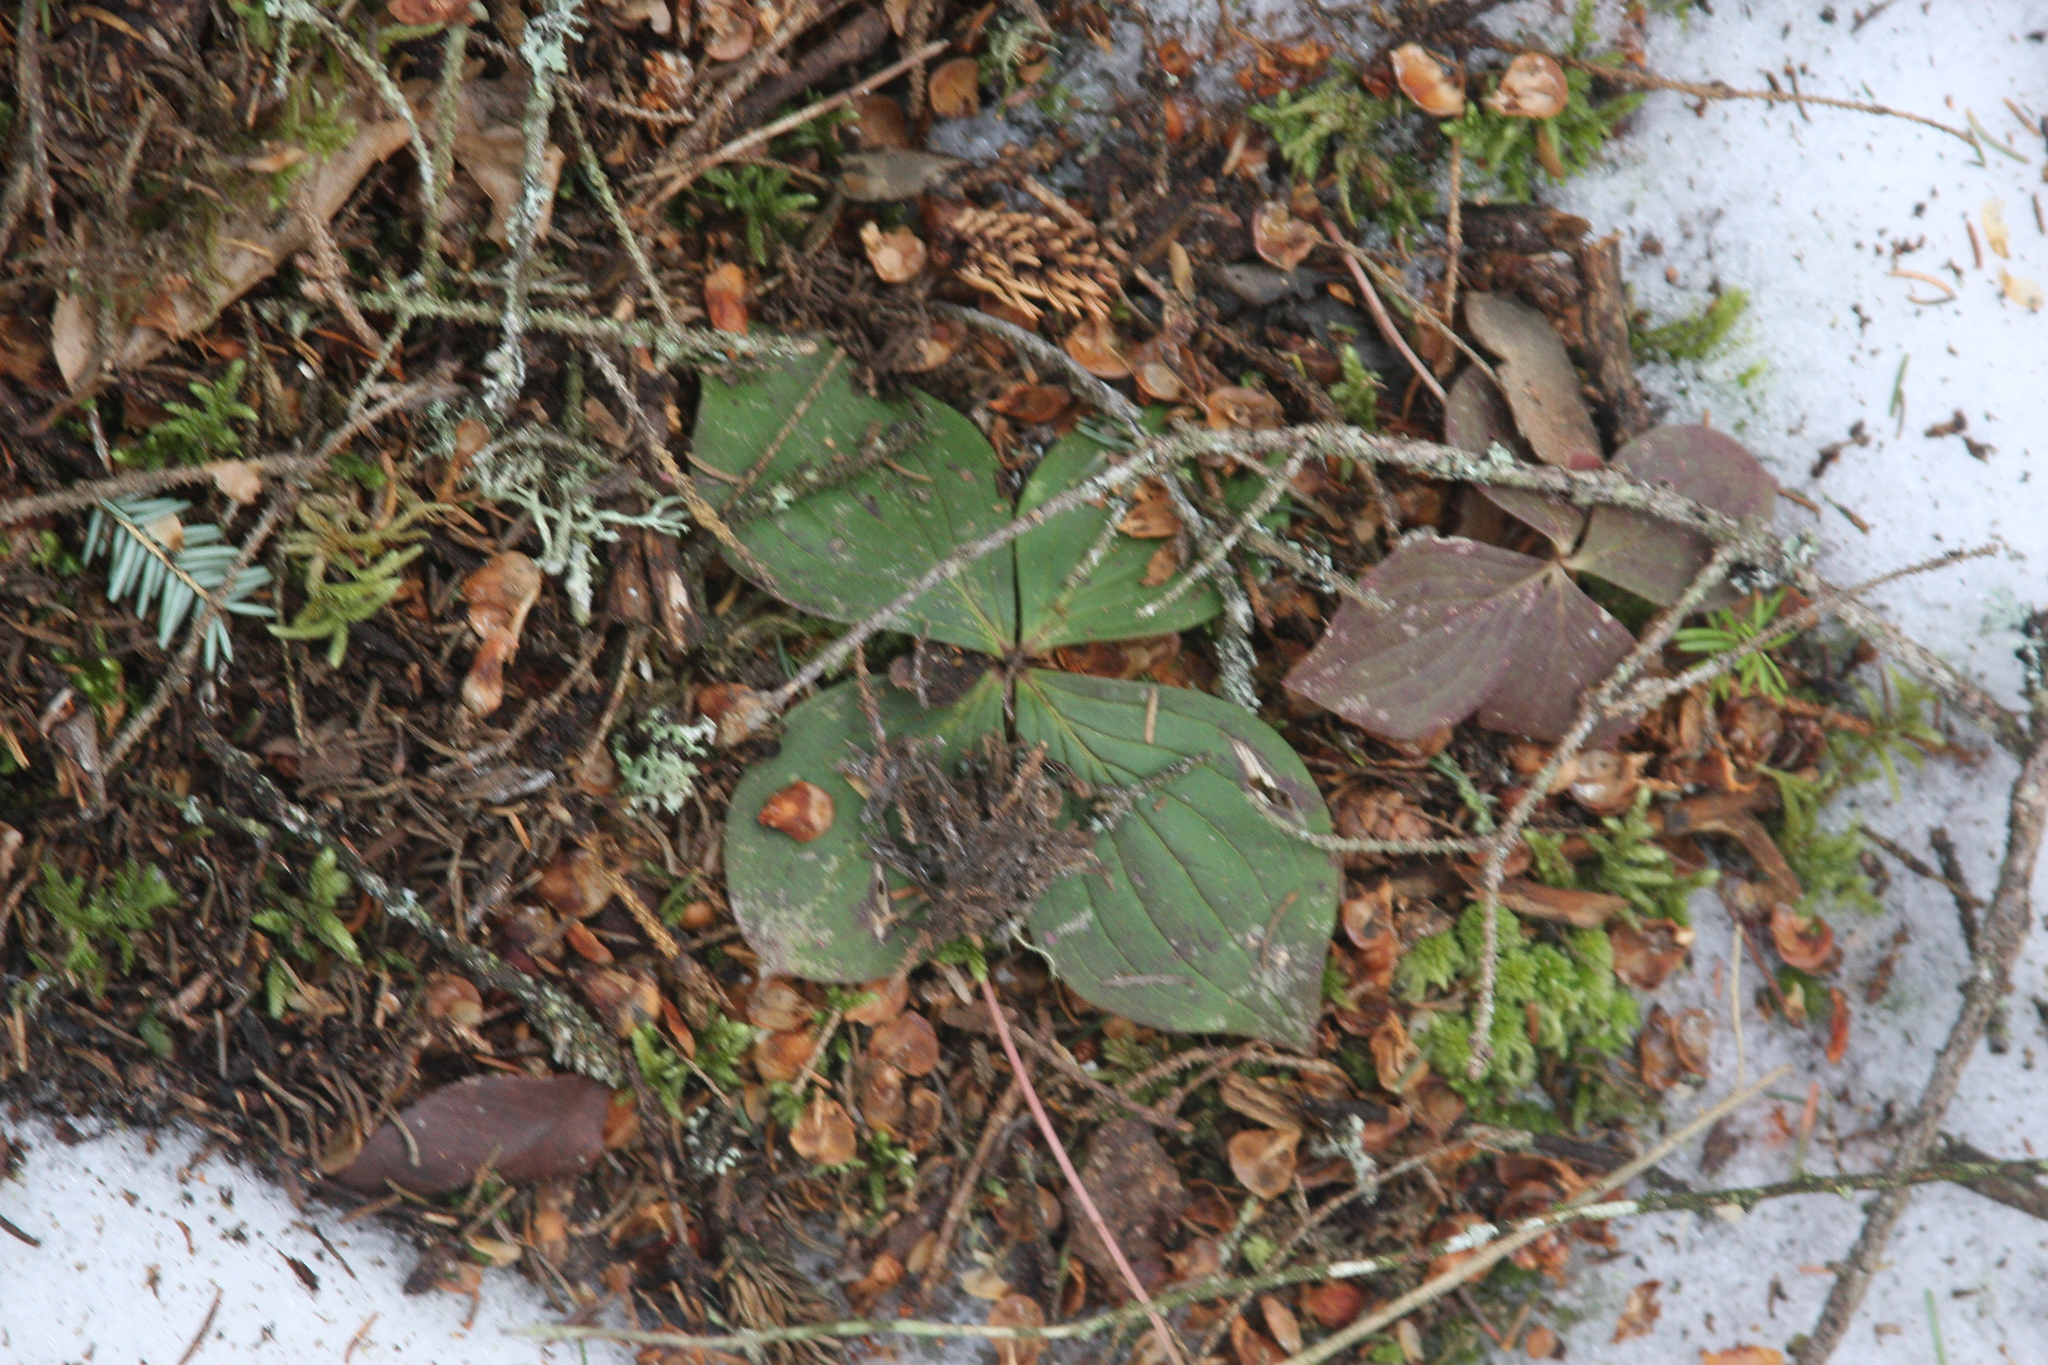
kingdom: Plantae
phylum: Tracheophyta
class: Magnoliopsida
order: Cornales
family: Cornaceae
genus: Cornus
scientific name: Cornus canadensis
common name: Creeping dogwood
